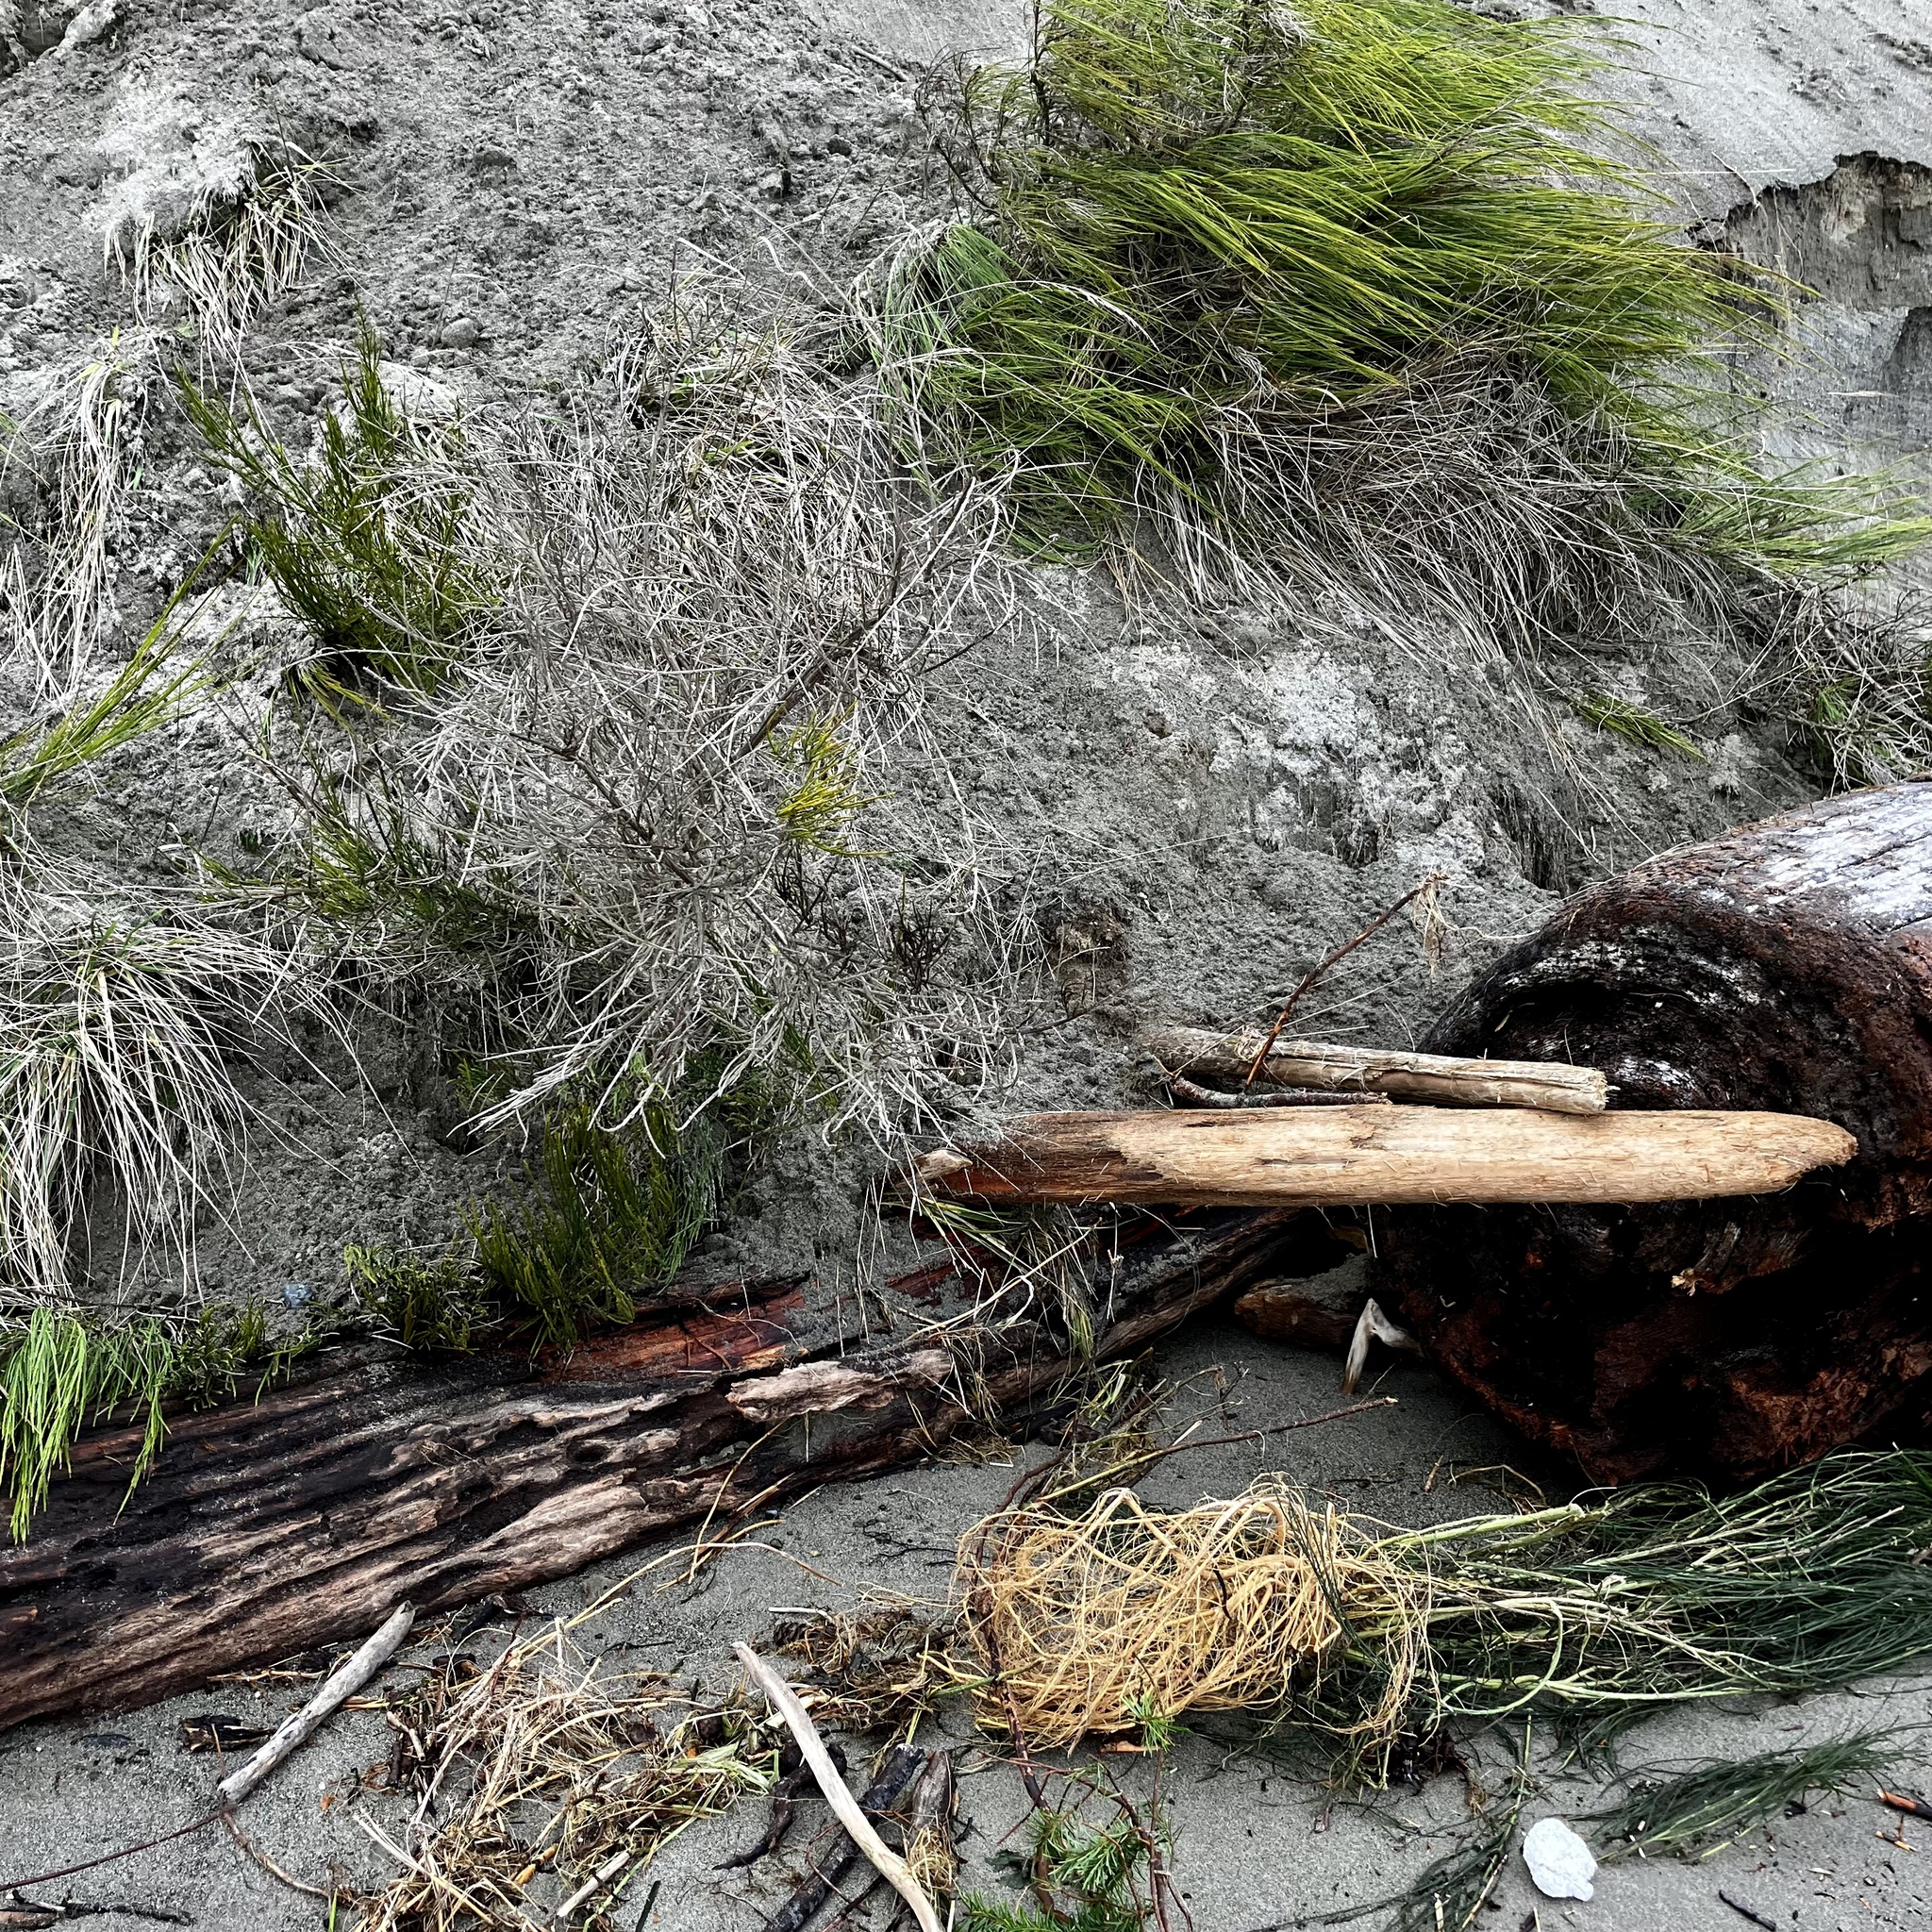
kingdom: Plantae
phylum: Tracheophyta
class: Magnoliopsida
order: Fabales
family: Fabaceae
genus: Cytisus
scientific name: Cytisus scoparius
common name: Scotch broom
